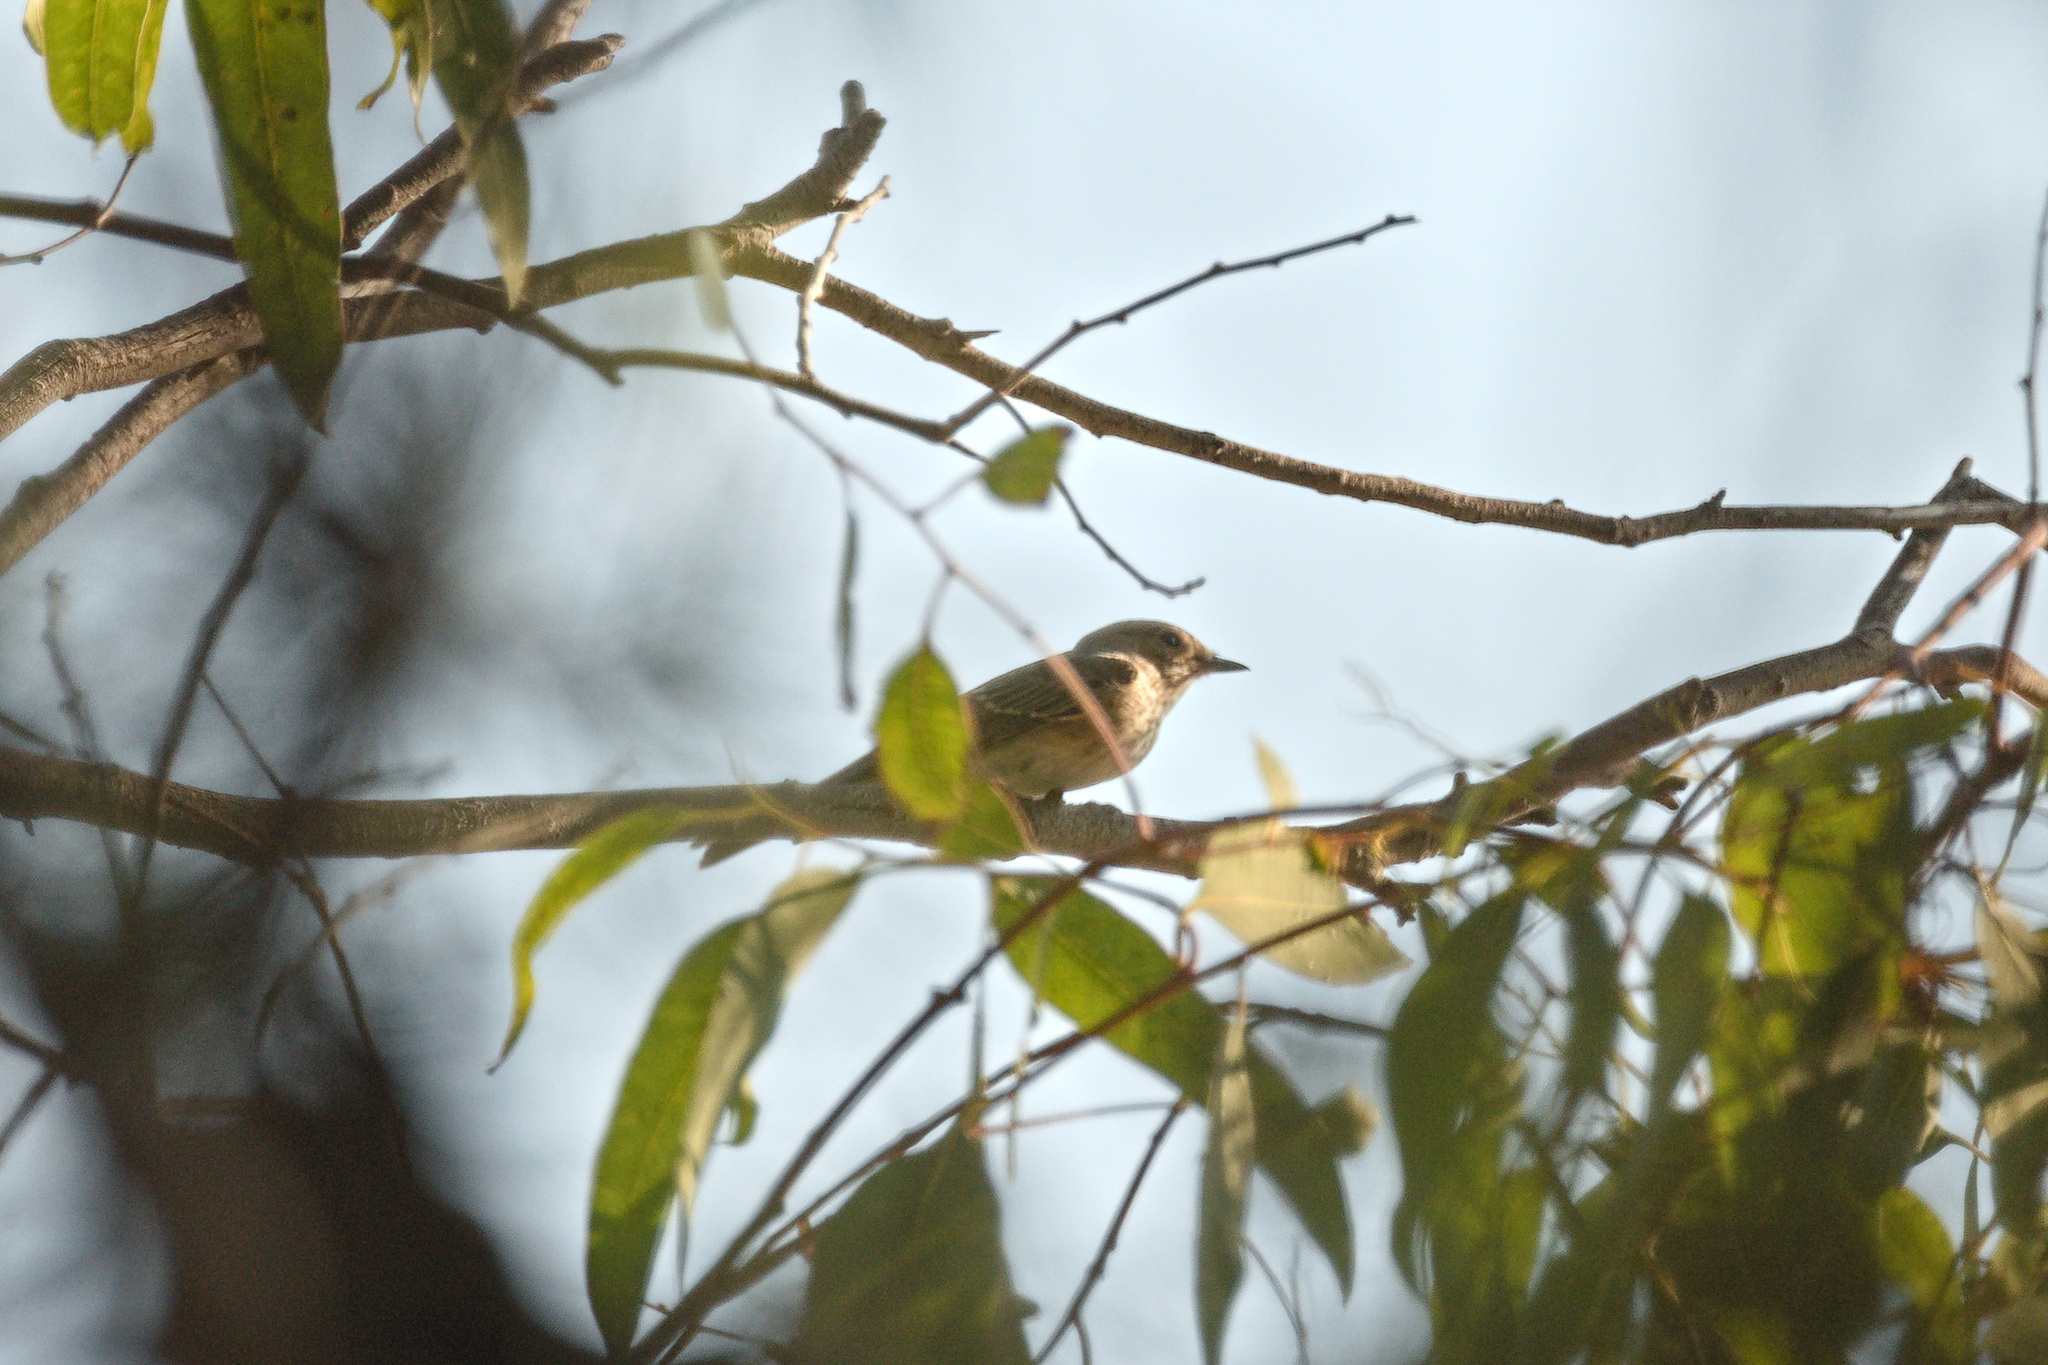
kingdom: Animalia
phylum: Chordata
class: Aves
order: Passeriformes
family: Muscicapidae
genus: Muscicapa
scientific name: Muscicapa striata
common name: Spotted flycatcher
